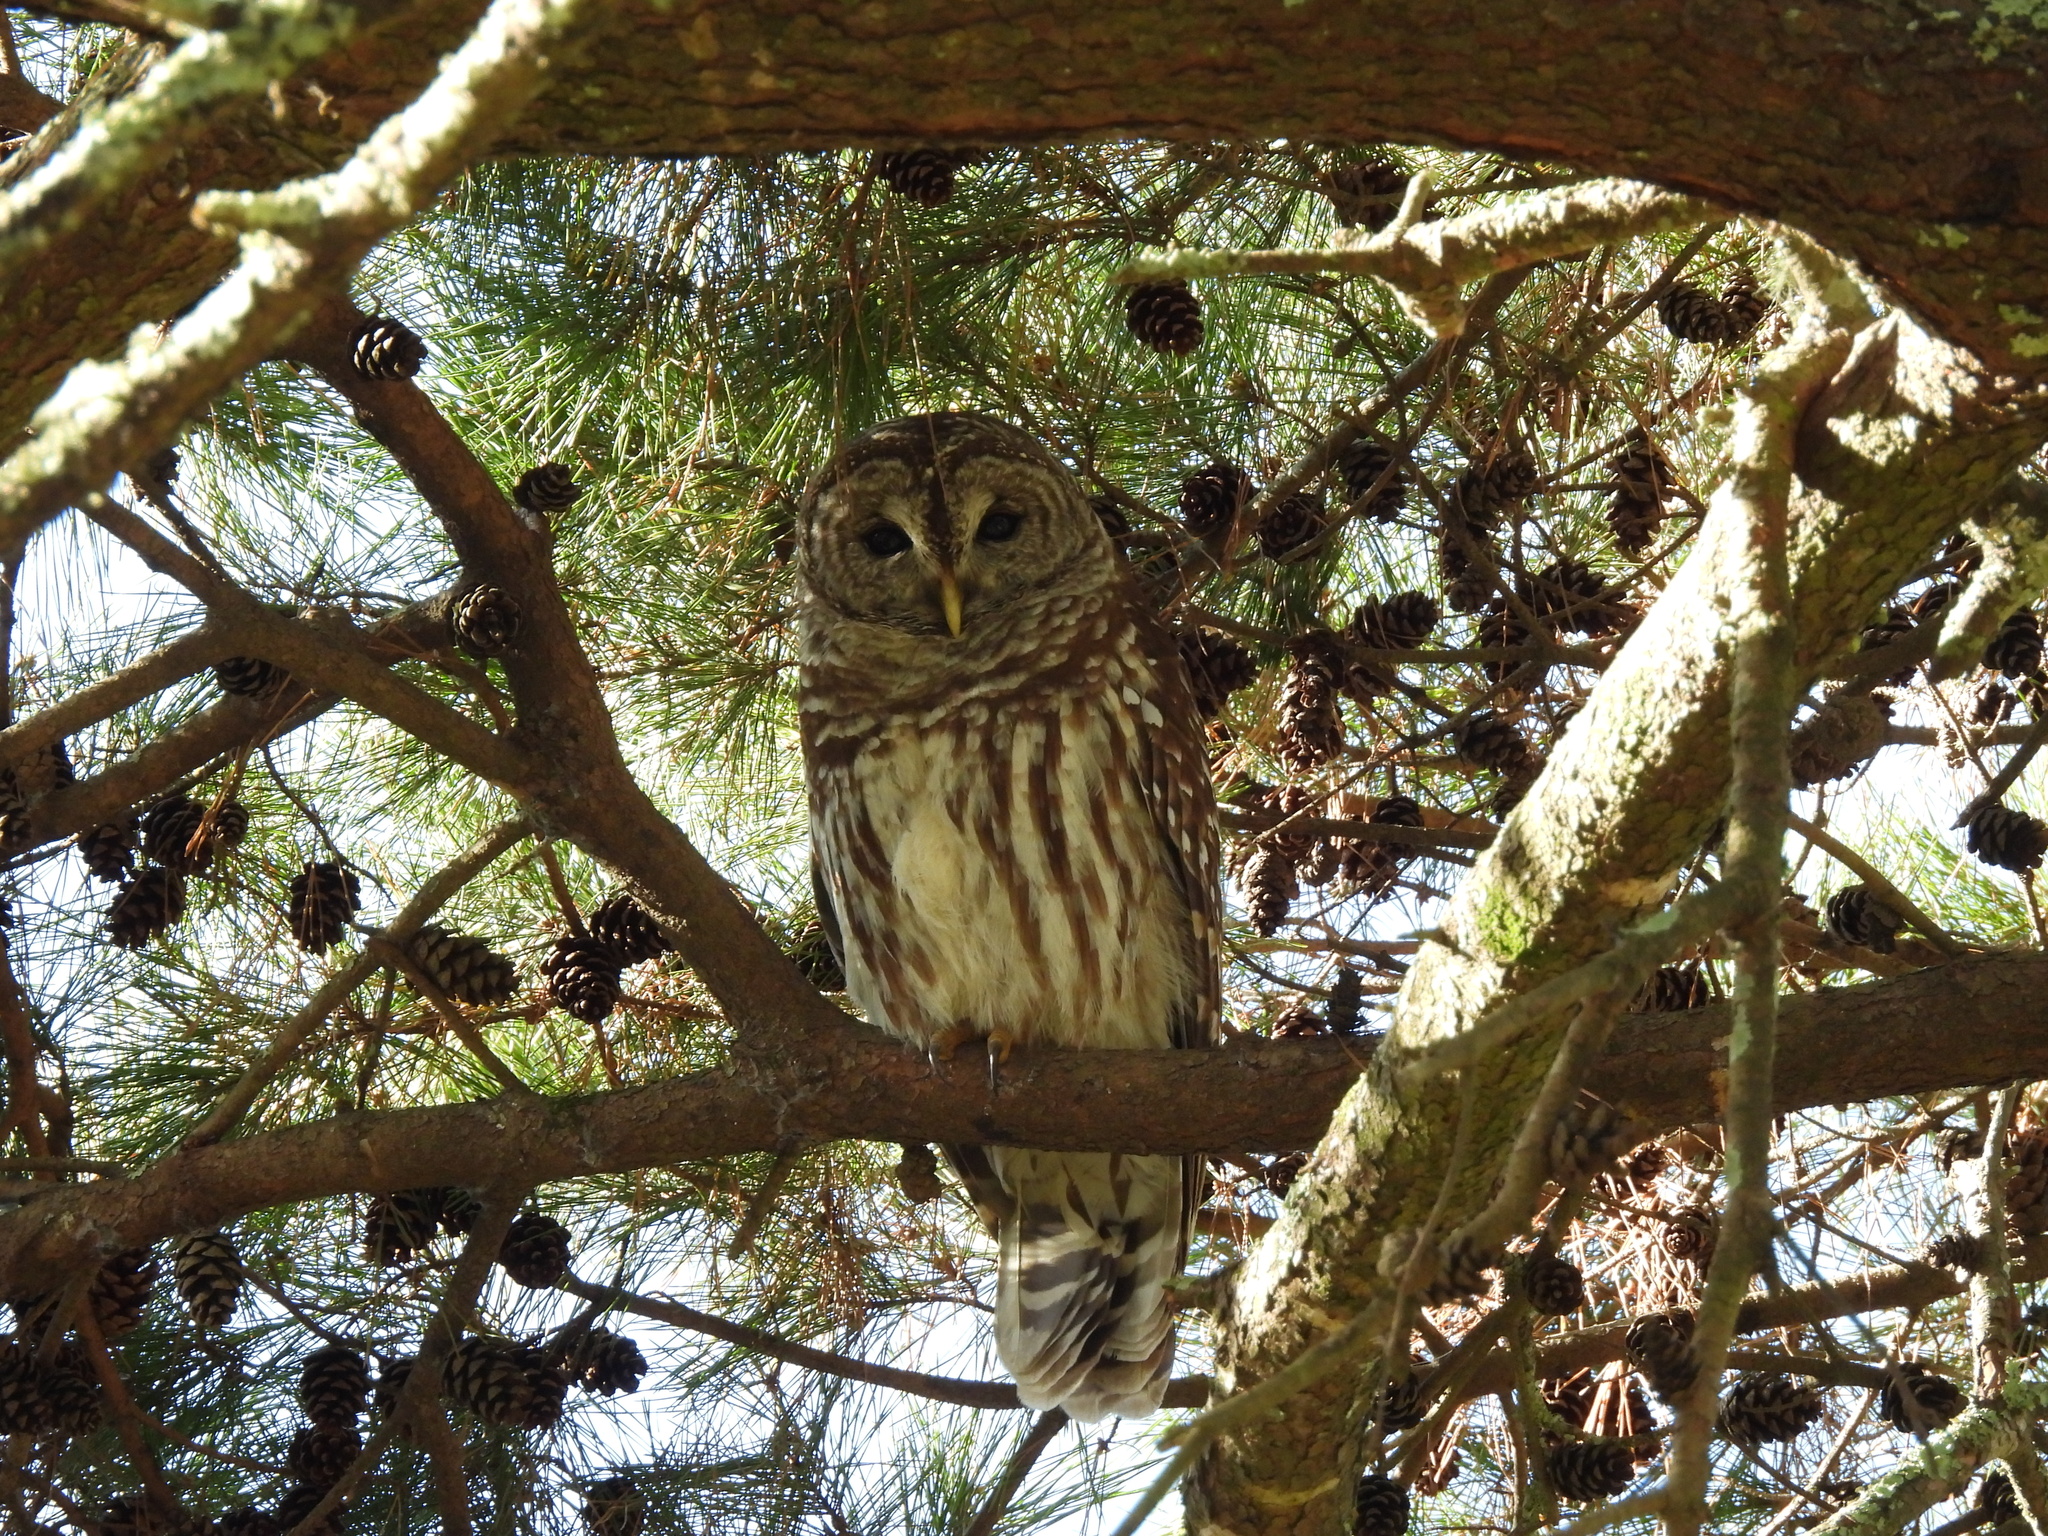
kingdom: Animalia
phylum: Chordata
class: Aves
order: Strigiformes
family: Strigidae
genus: Strix
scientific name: Strix varia
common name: Barred owl
